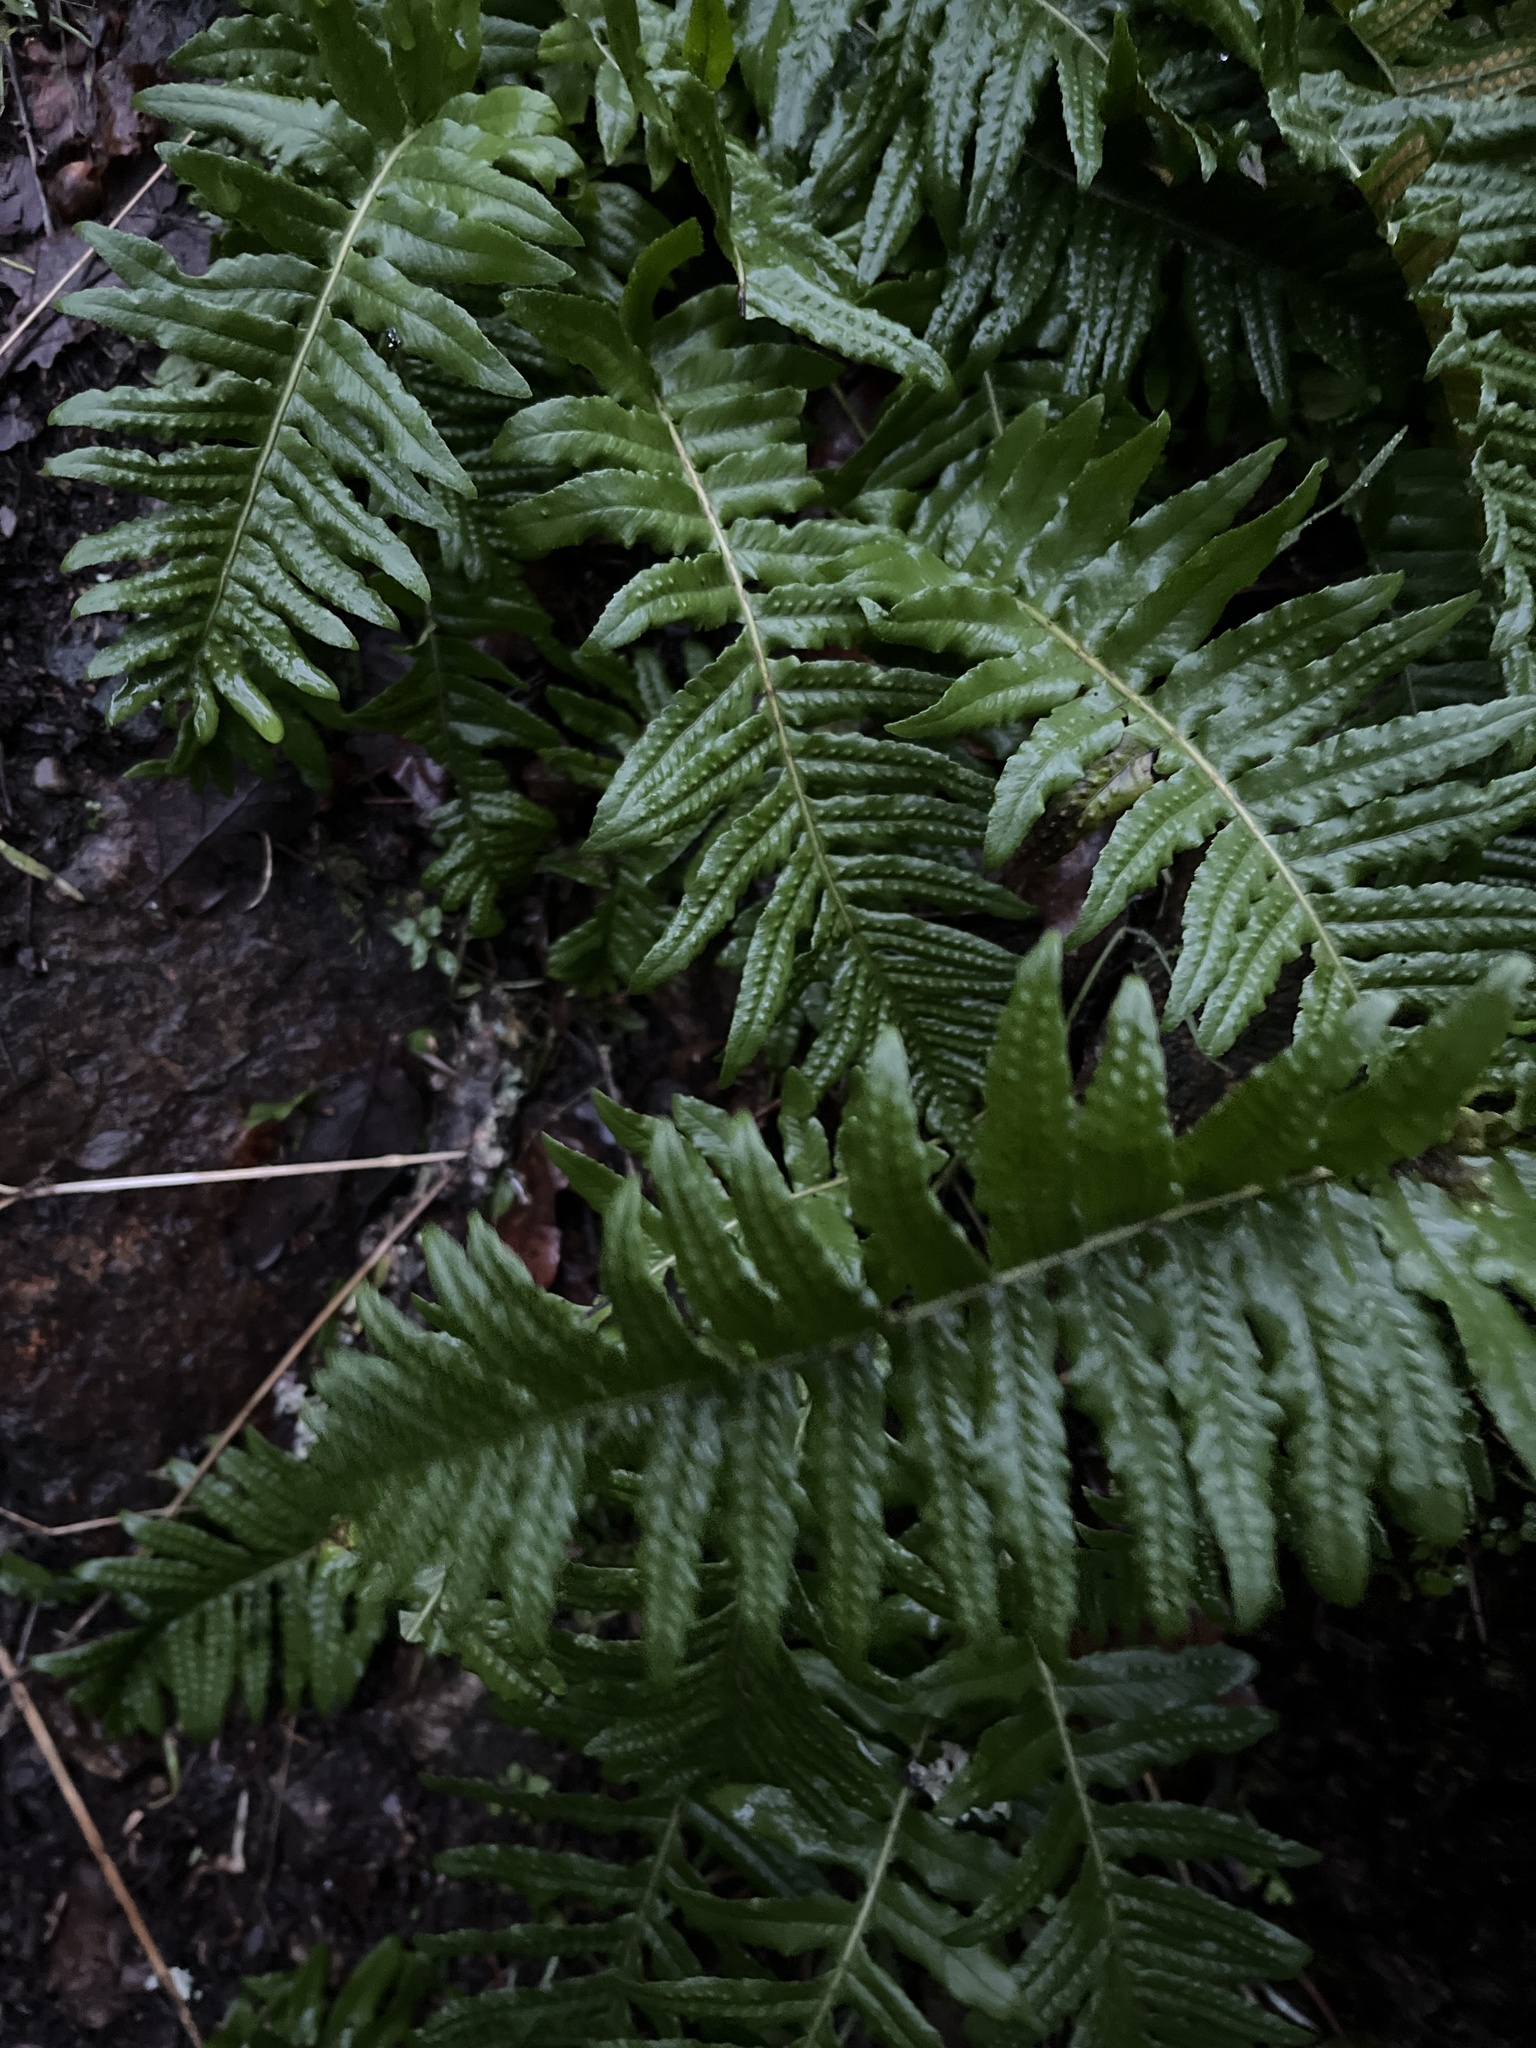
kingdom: Plantae
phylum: Tracheophyta
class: Polypodiopsida
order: Polypodiales
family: Polypodiaceae
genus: Polypodium
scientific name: Polypodium glycyrrhiza
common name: Licorice fern
